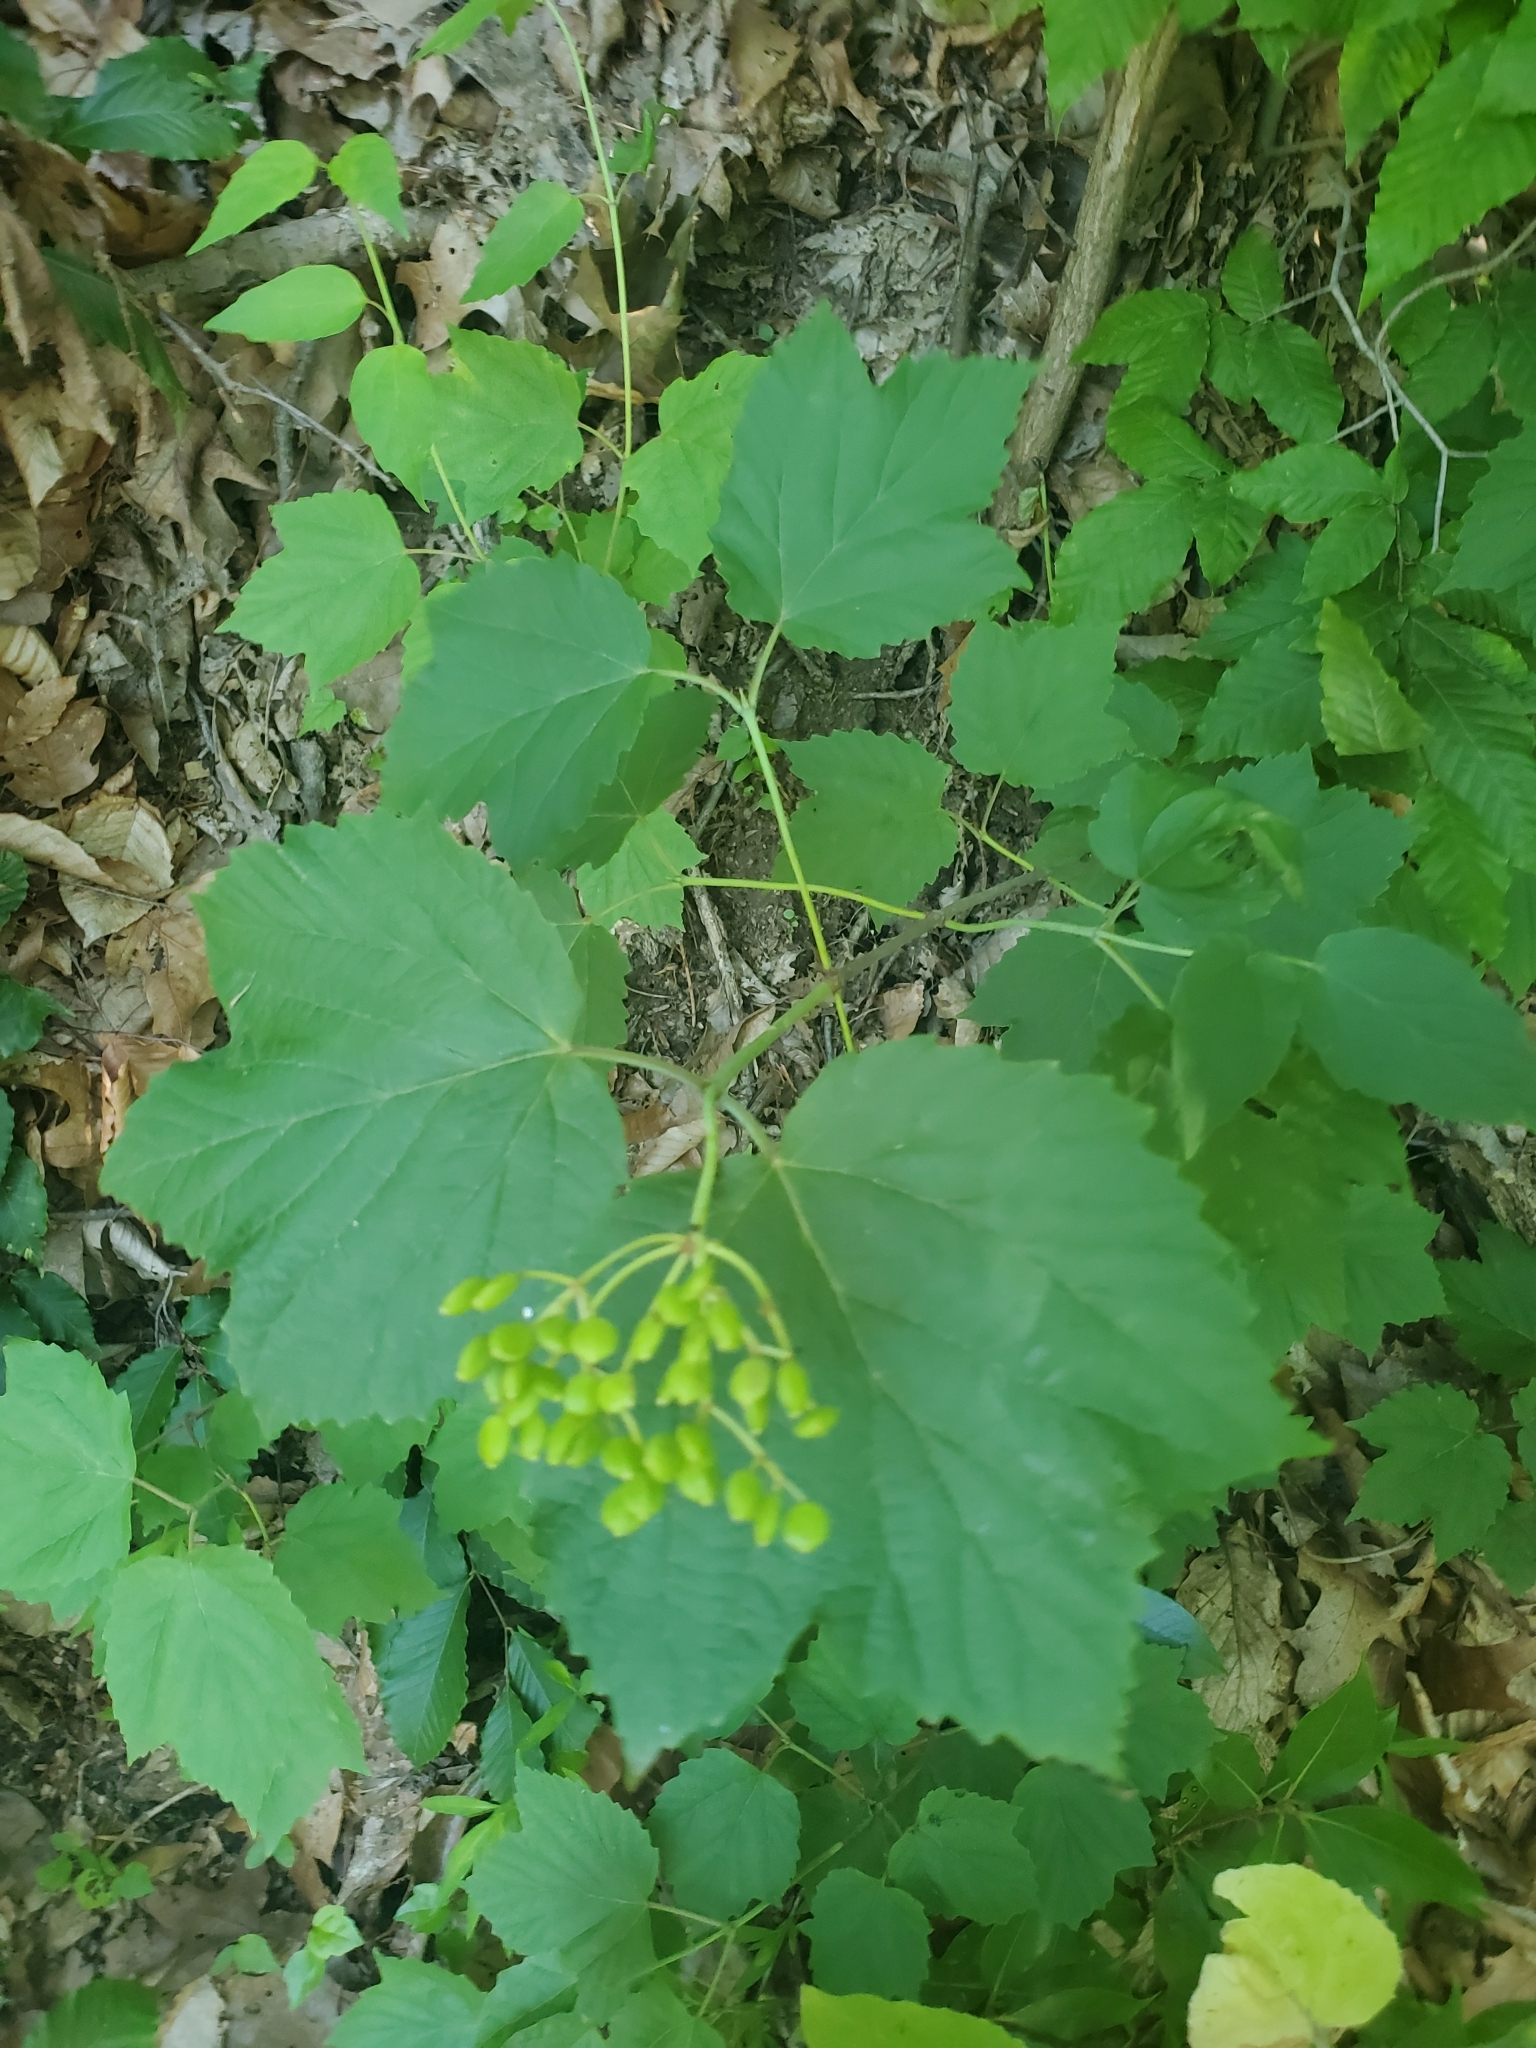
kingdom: Plantae
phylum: Tracheophyta
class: Magnoliopsida
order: Dipsacales
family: Viburnaceae
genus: Viburnum
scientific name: Viburnum acerifolium
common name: Dockmackie
